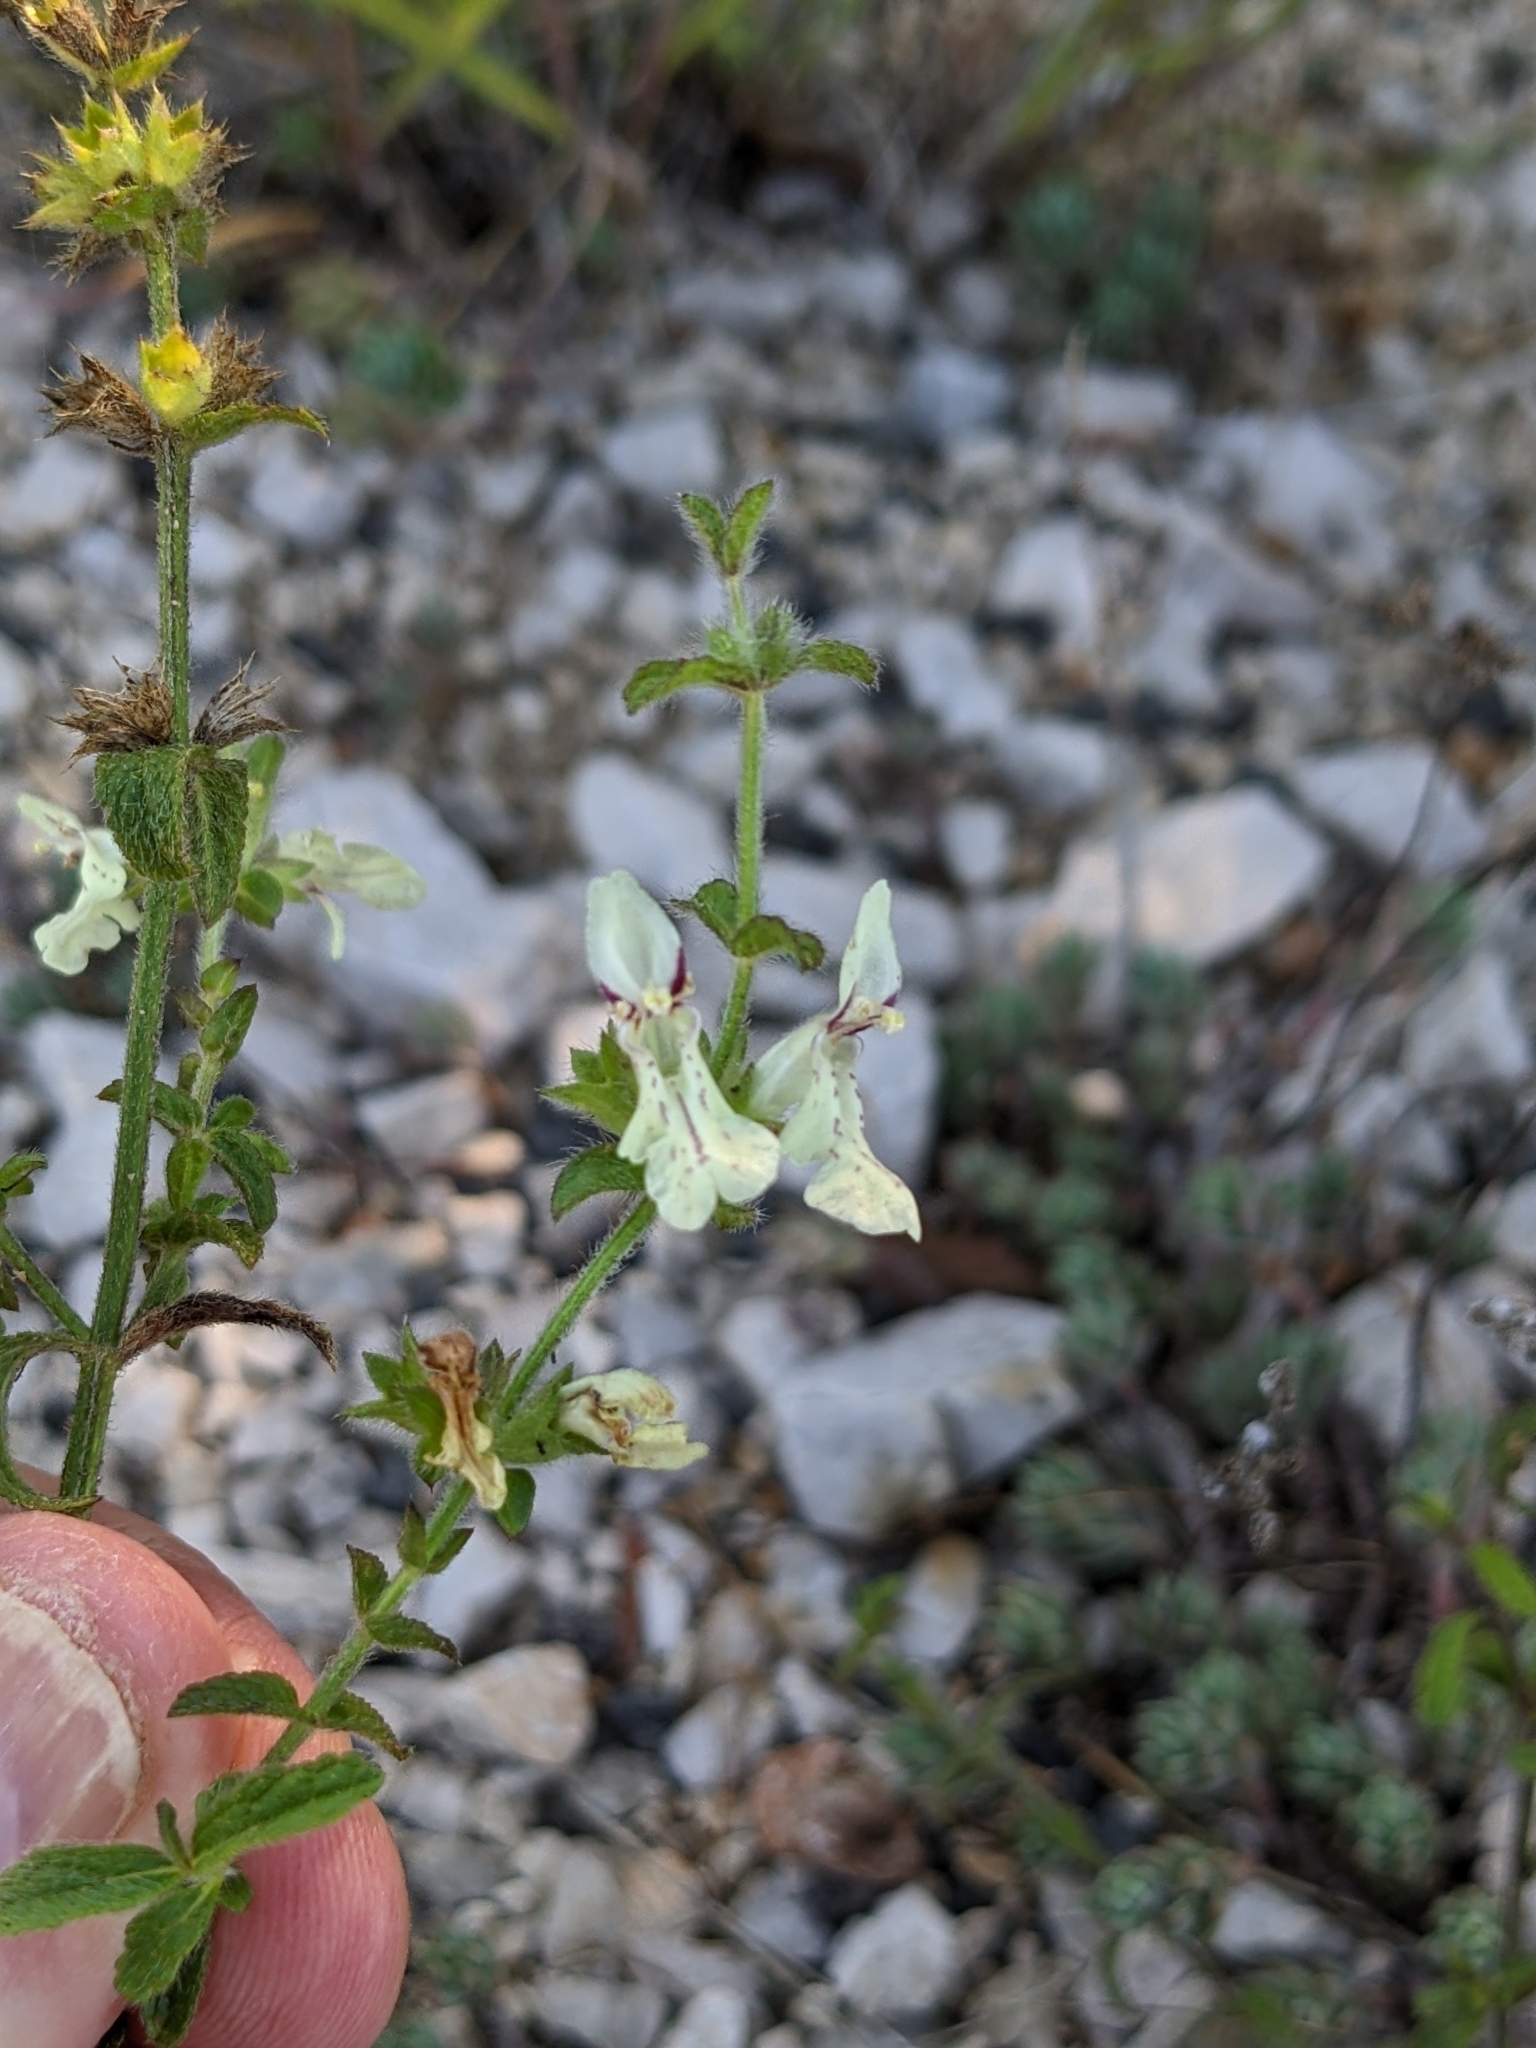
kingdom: Plantae
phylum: Tracheophyta
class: Magnoliopsida
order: Lamiales
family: Lamiaceae
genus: Stachys
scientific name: Stachys recta
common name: Perennial yellow-woundwort
